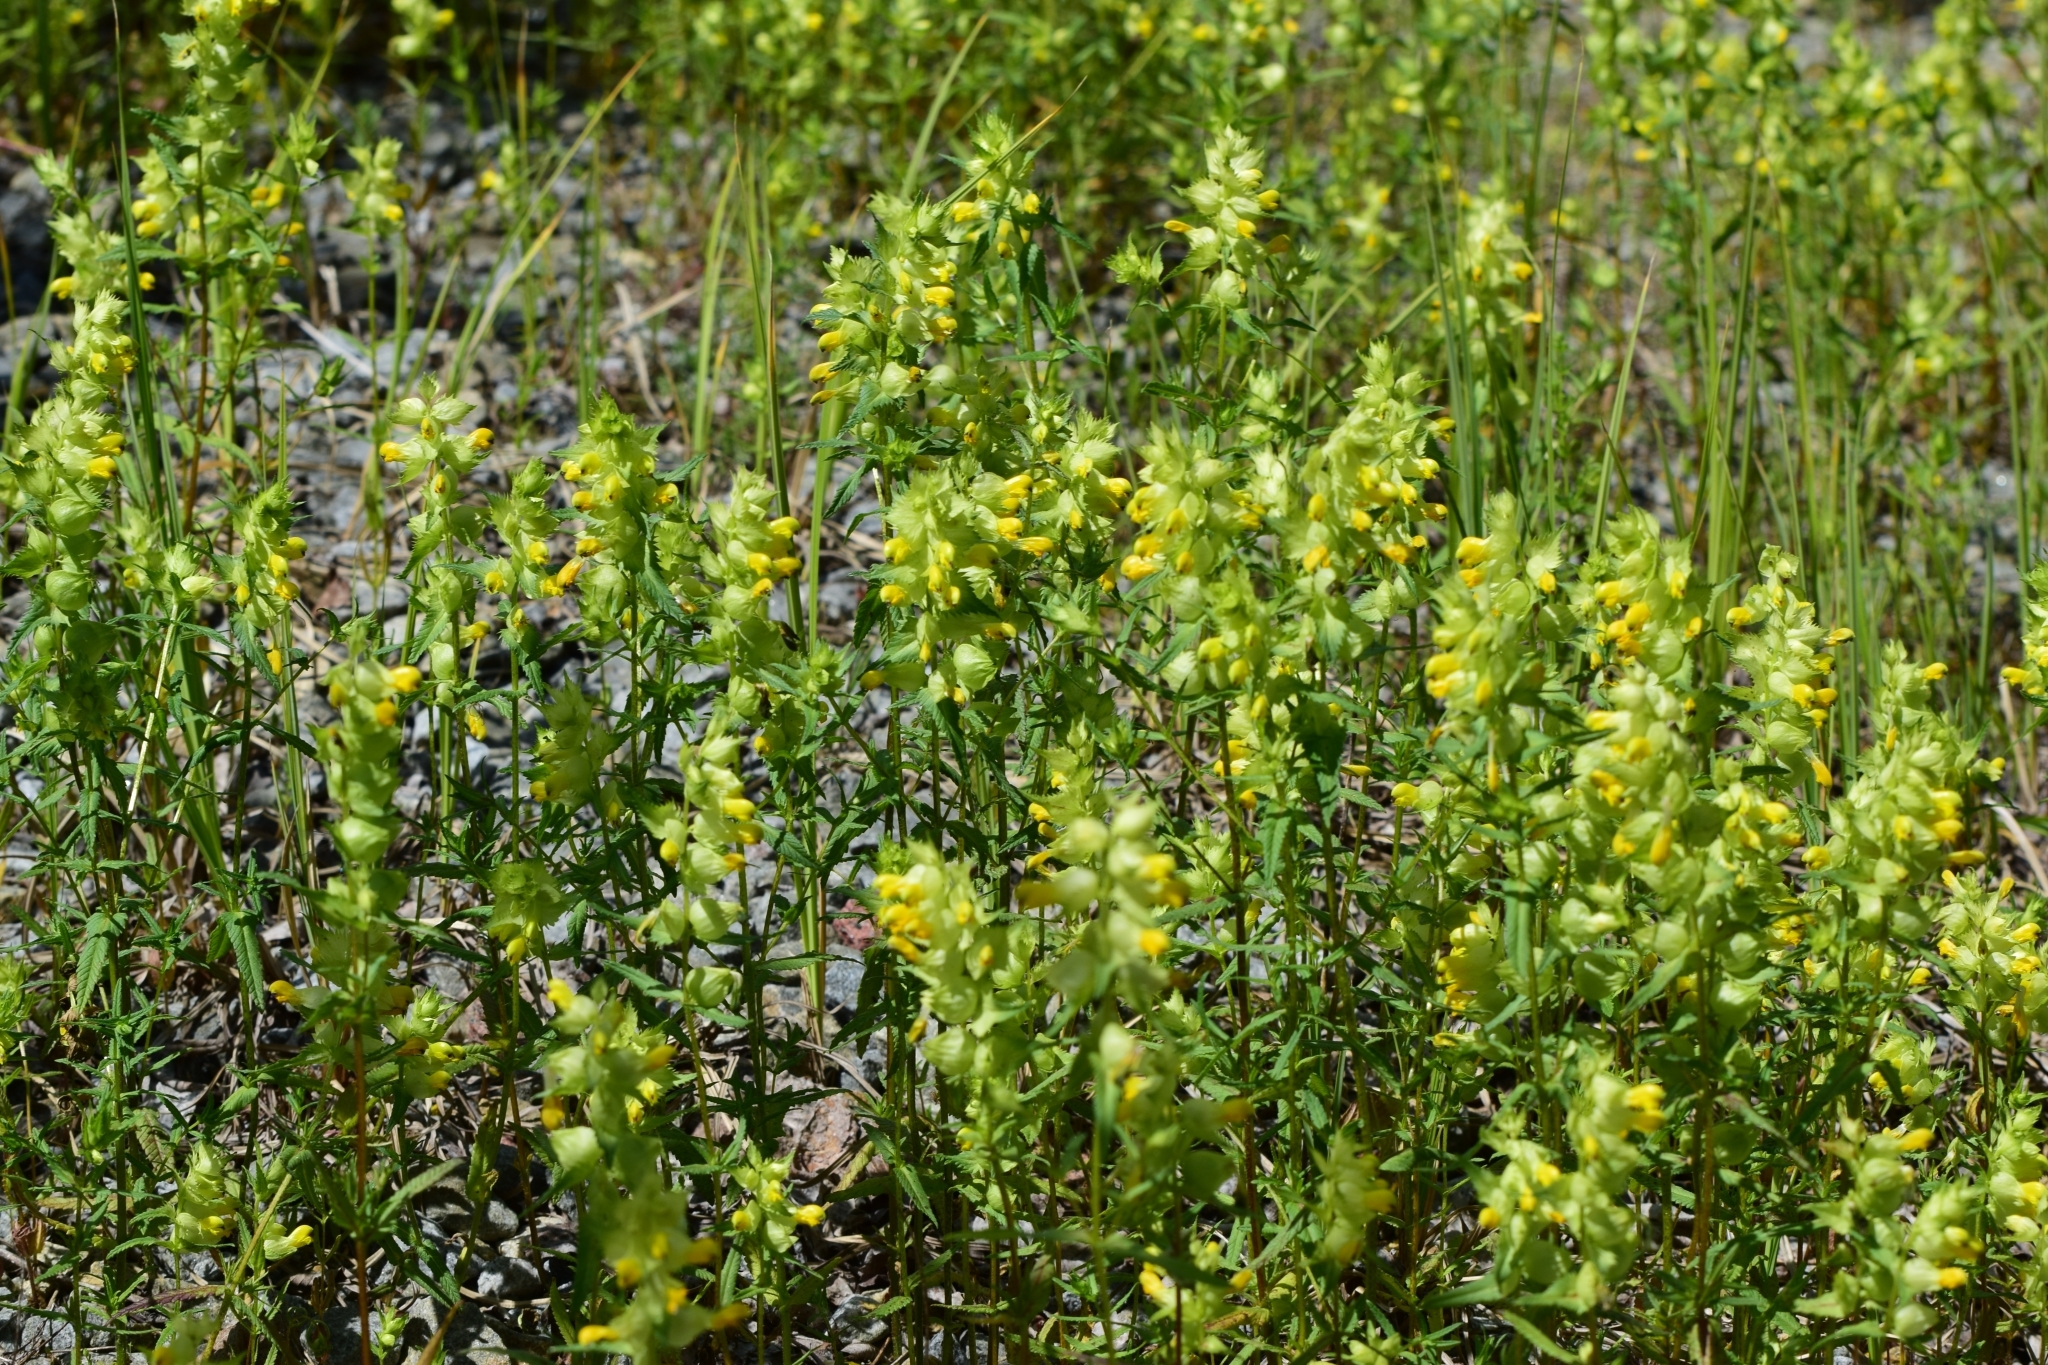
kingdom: Plantae
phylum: Tracheophyta
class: Magnoliopsida
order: Lamiales
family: Orobanchaceae
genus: Rhinanthus
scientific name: Rhinanthus serotinus
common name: Late-flowering yellow rattle
